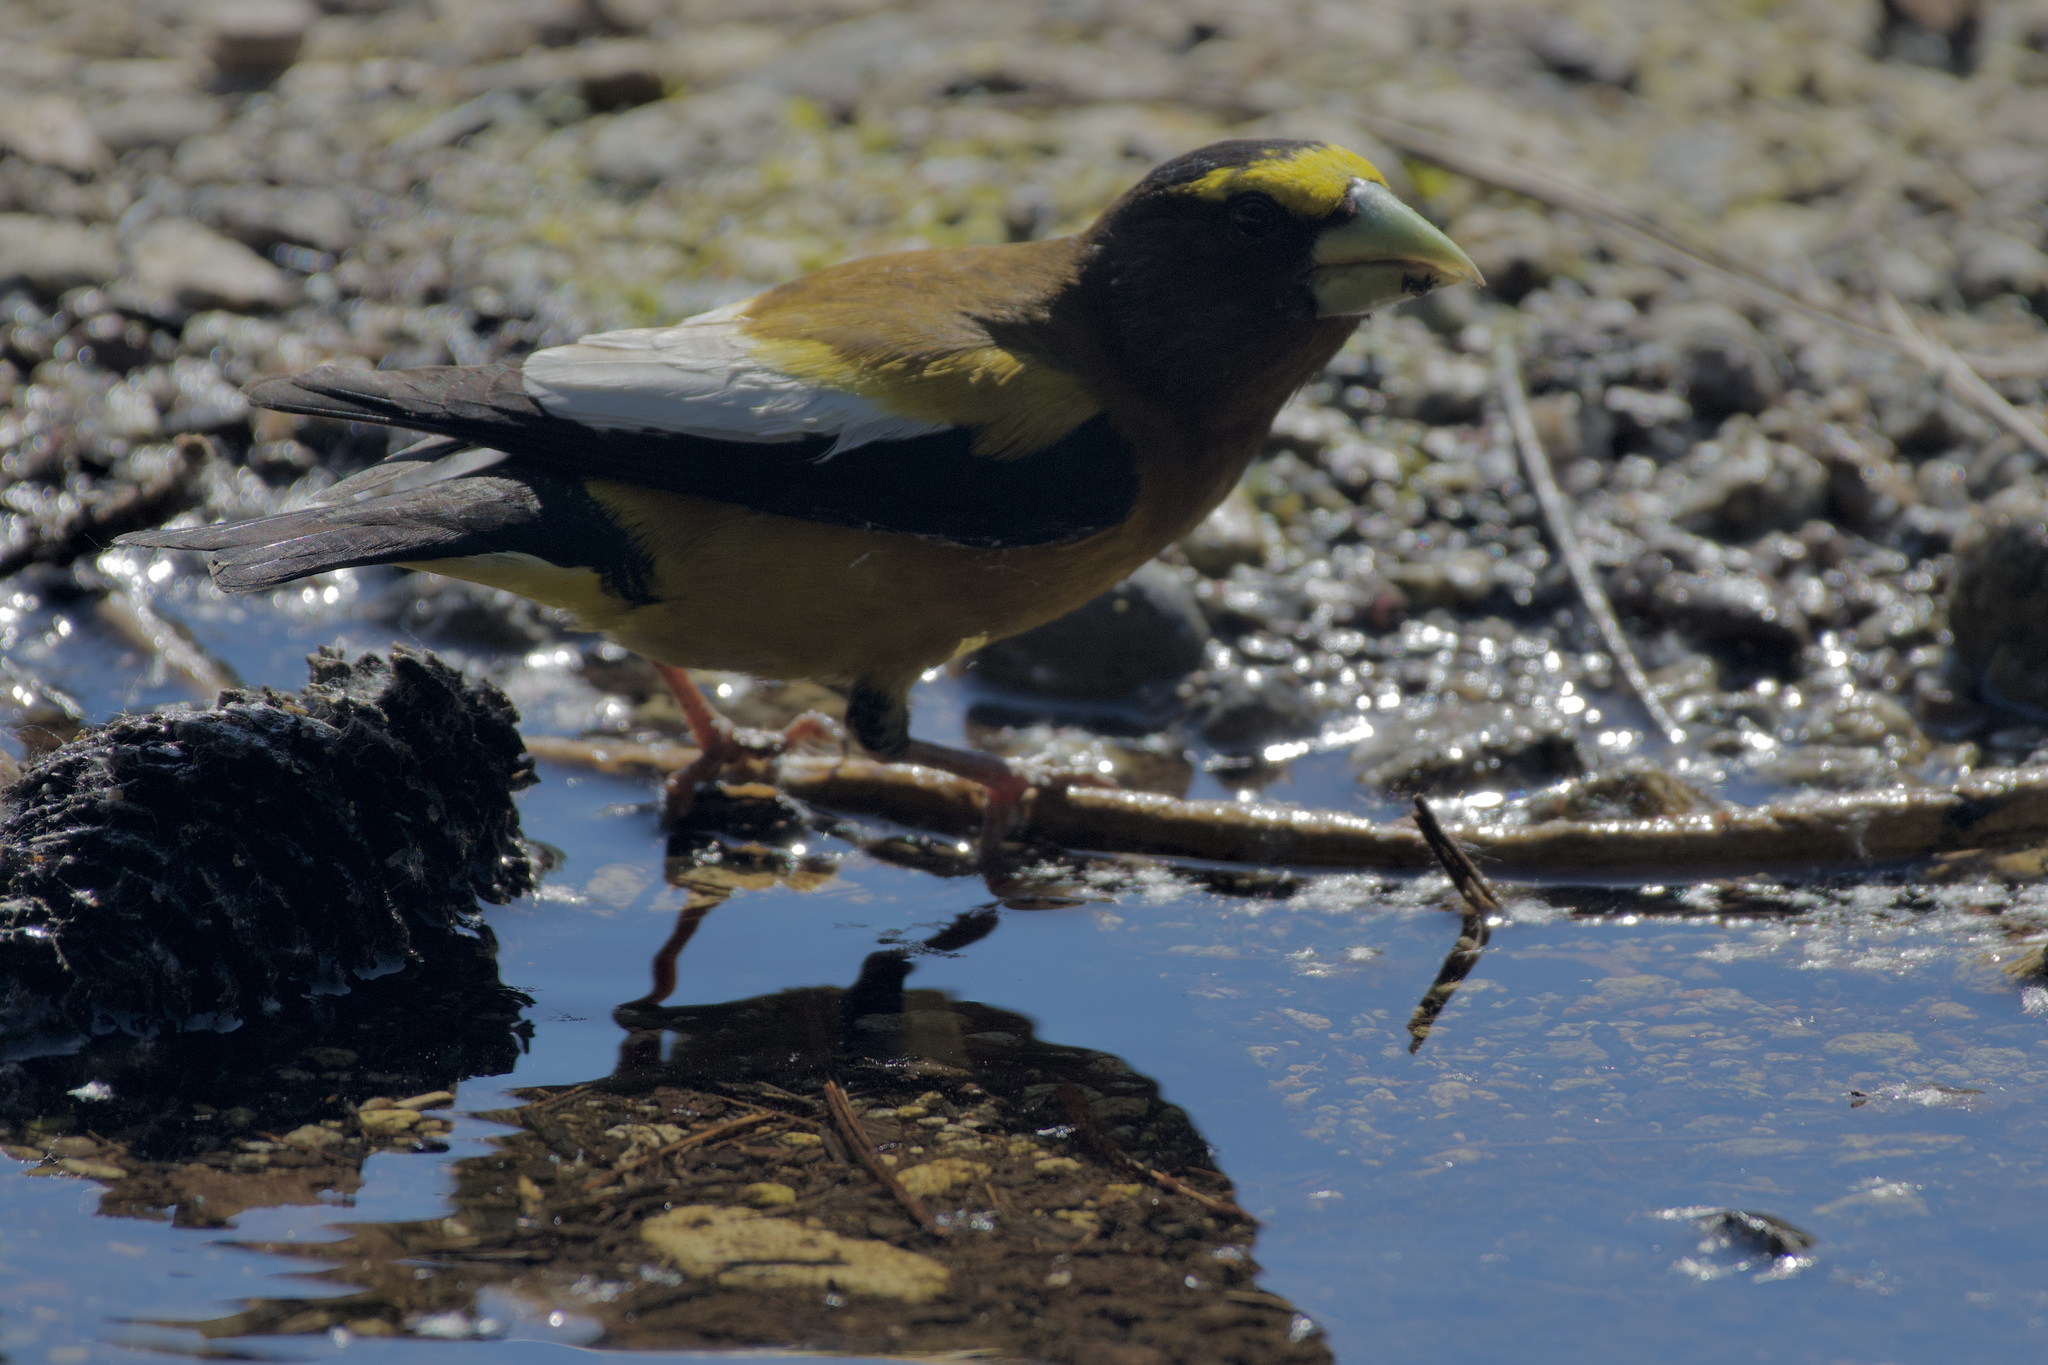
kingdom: Animalia
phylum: Chordata
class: Aves
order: Passeriformes
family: Fringillidae
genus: Hesperiphona
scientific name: Hesperiphona vespertina
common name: Evening grosbeak
